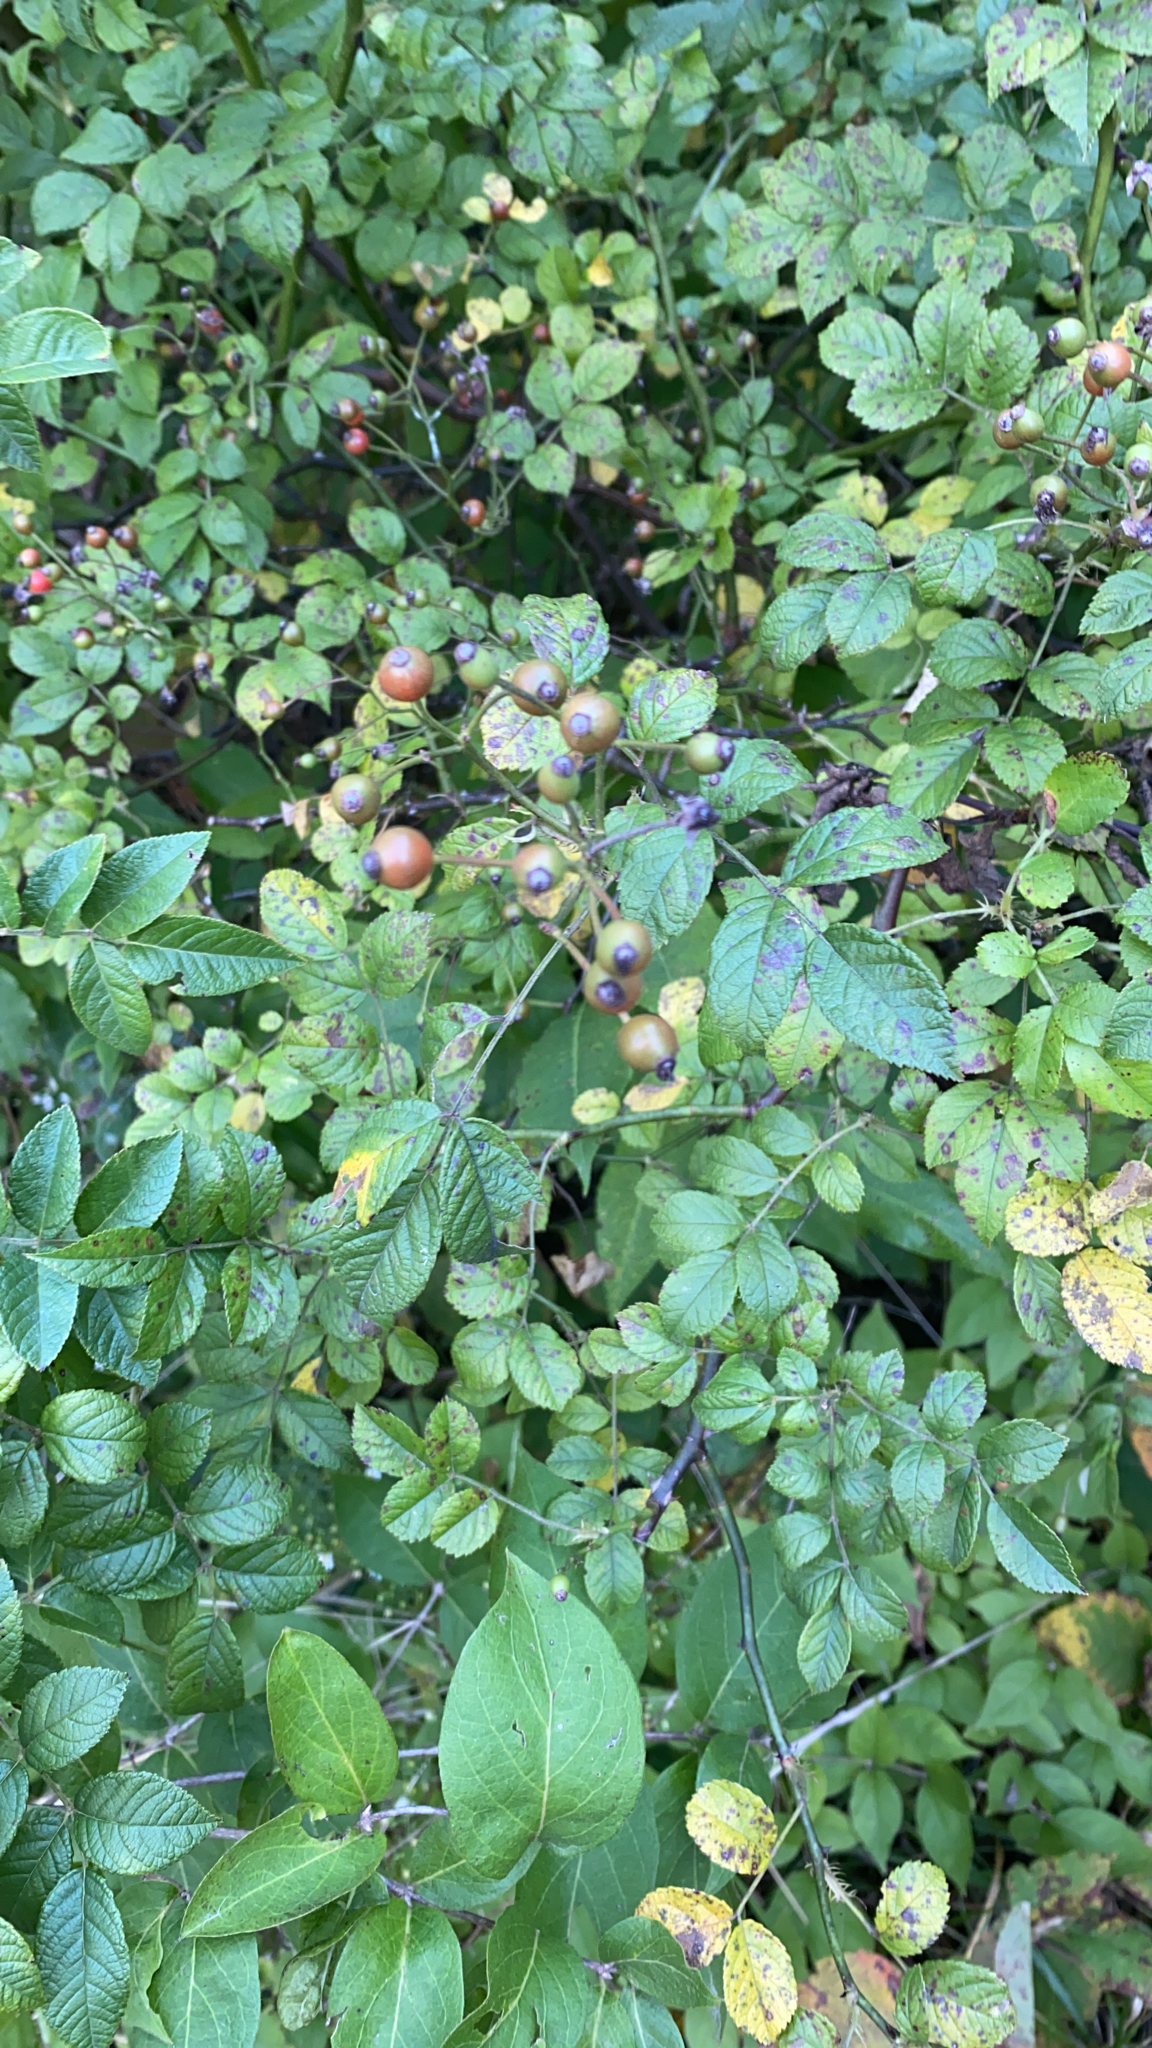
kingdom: Plantae
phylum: Tracheophyta
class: Magnoliopsida
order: Rosales
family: Rosaceae
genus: Rosa
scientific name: Rosa multiflora
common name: Multiflora rose
